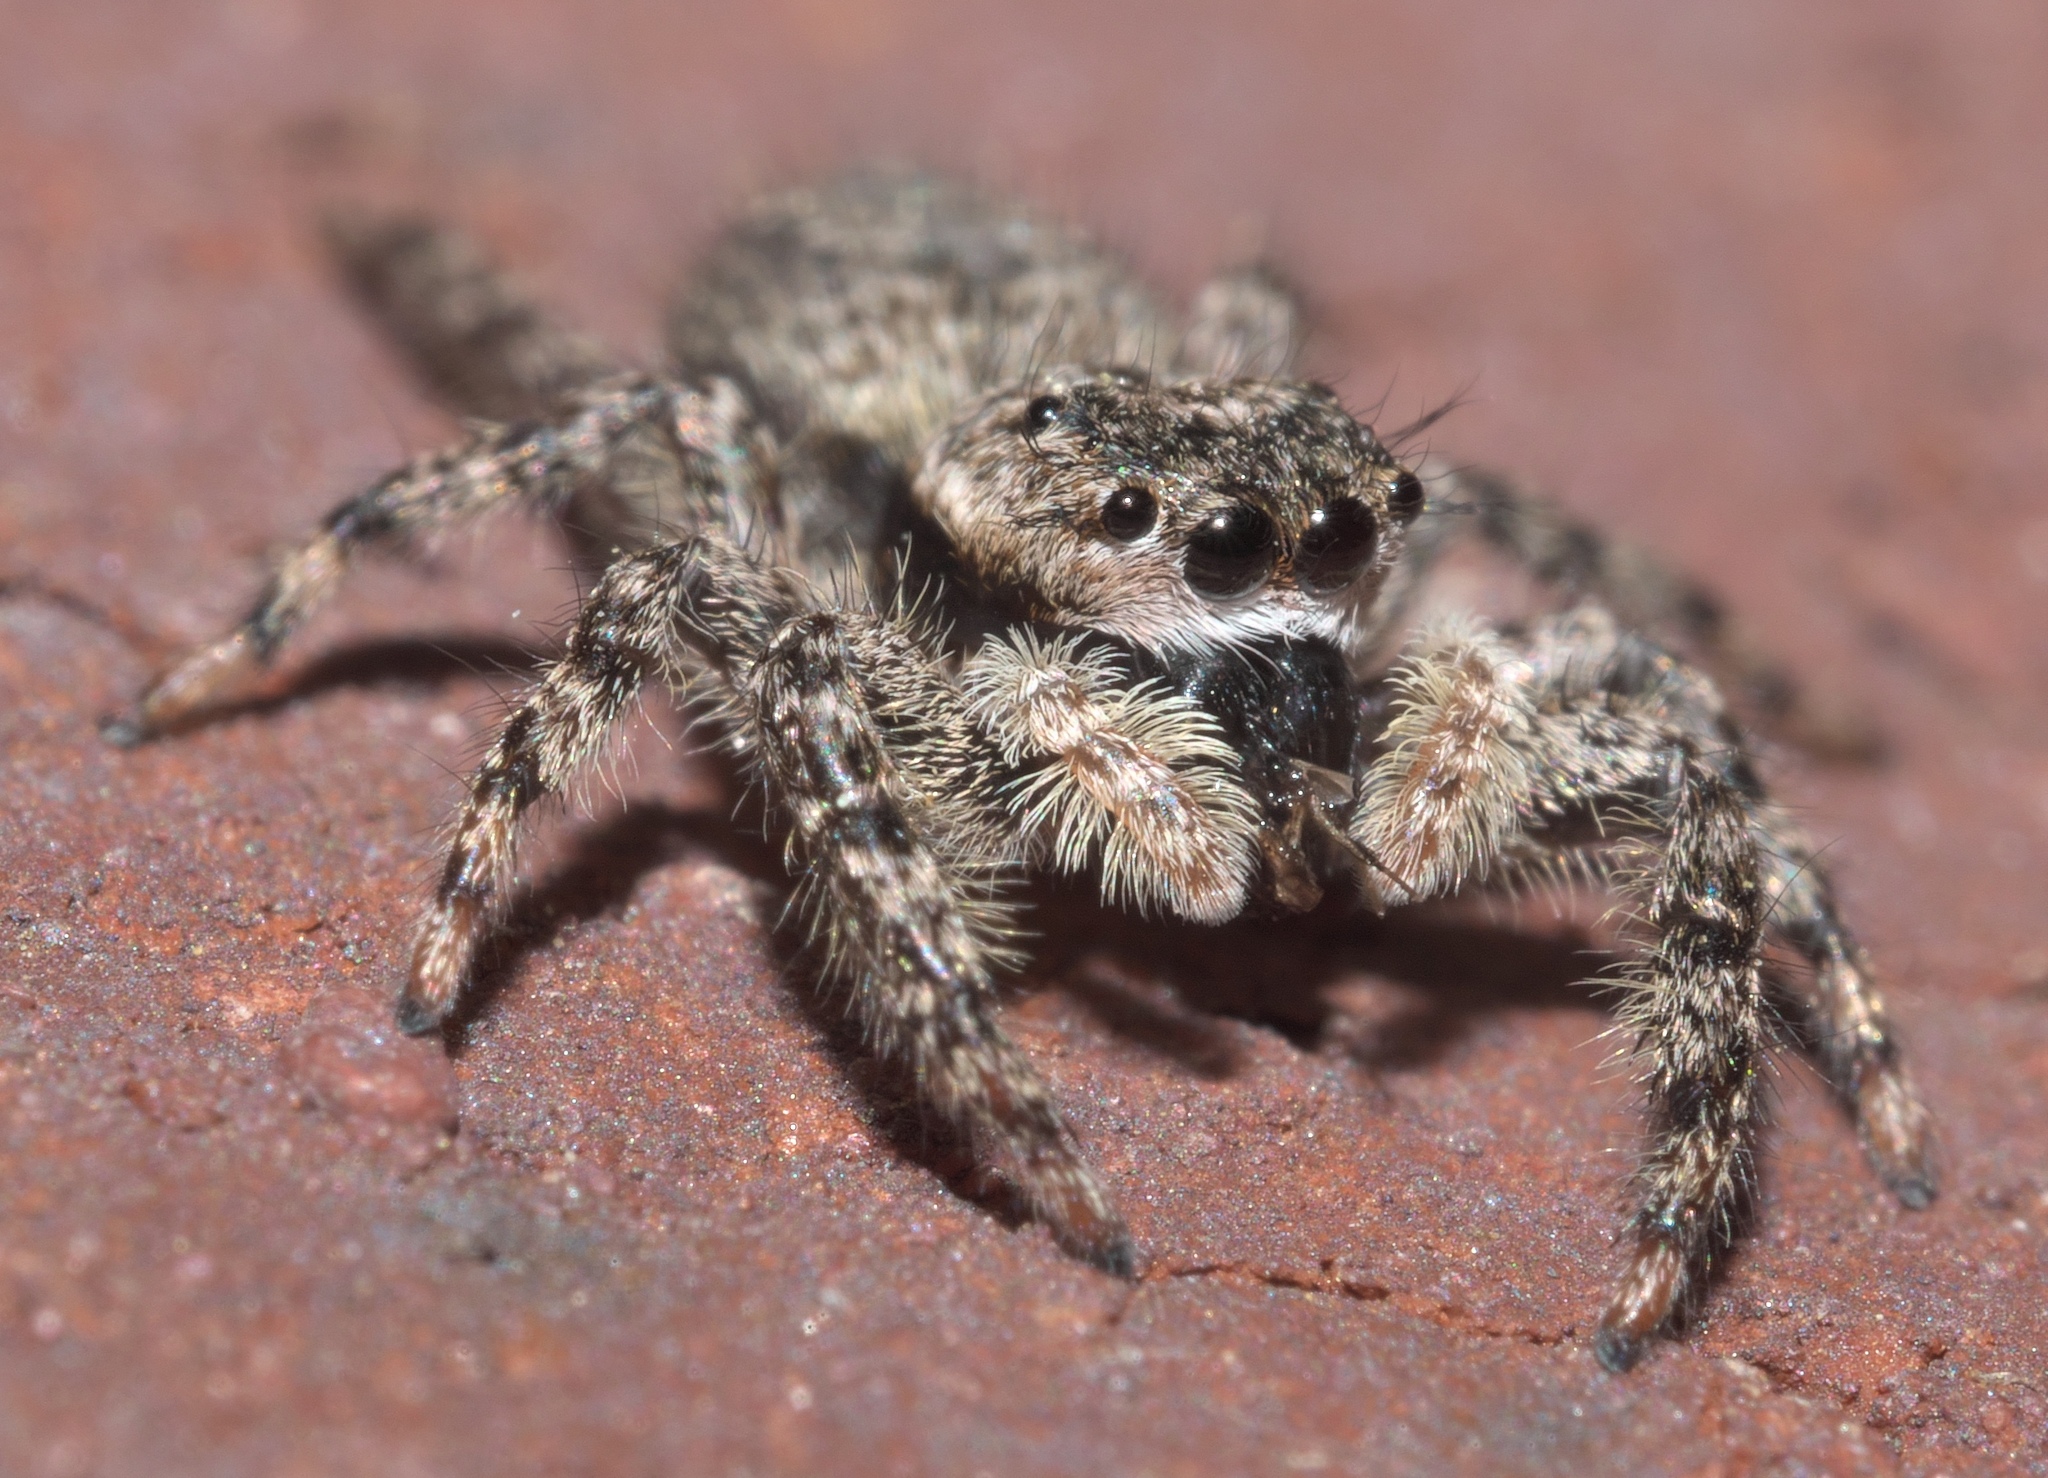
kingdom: Animalia
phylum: Arthropoda
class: Arachnida
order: Araneae
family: Salticidae
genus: Platycryptus
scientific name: Platycryptus undatus
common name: Tan jumping spider
